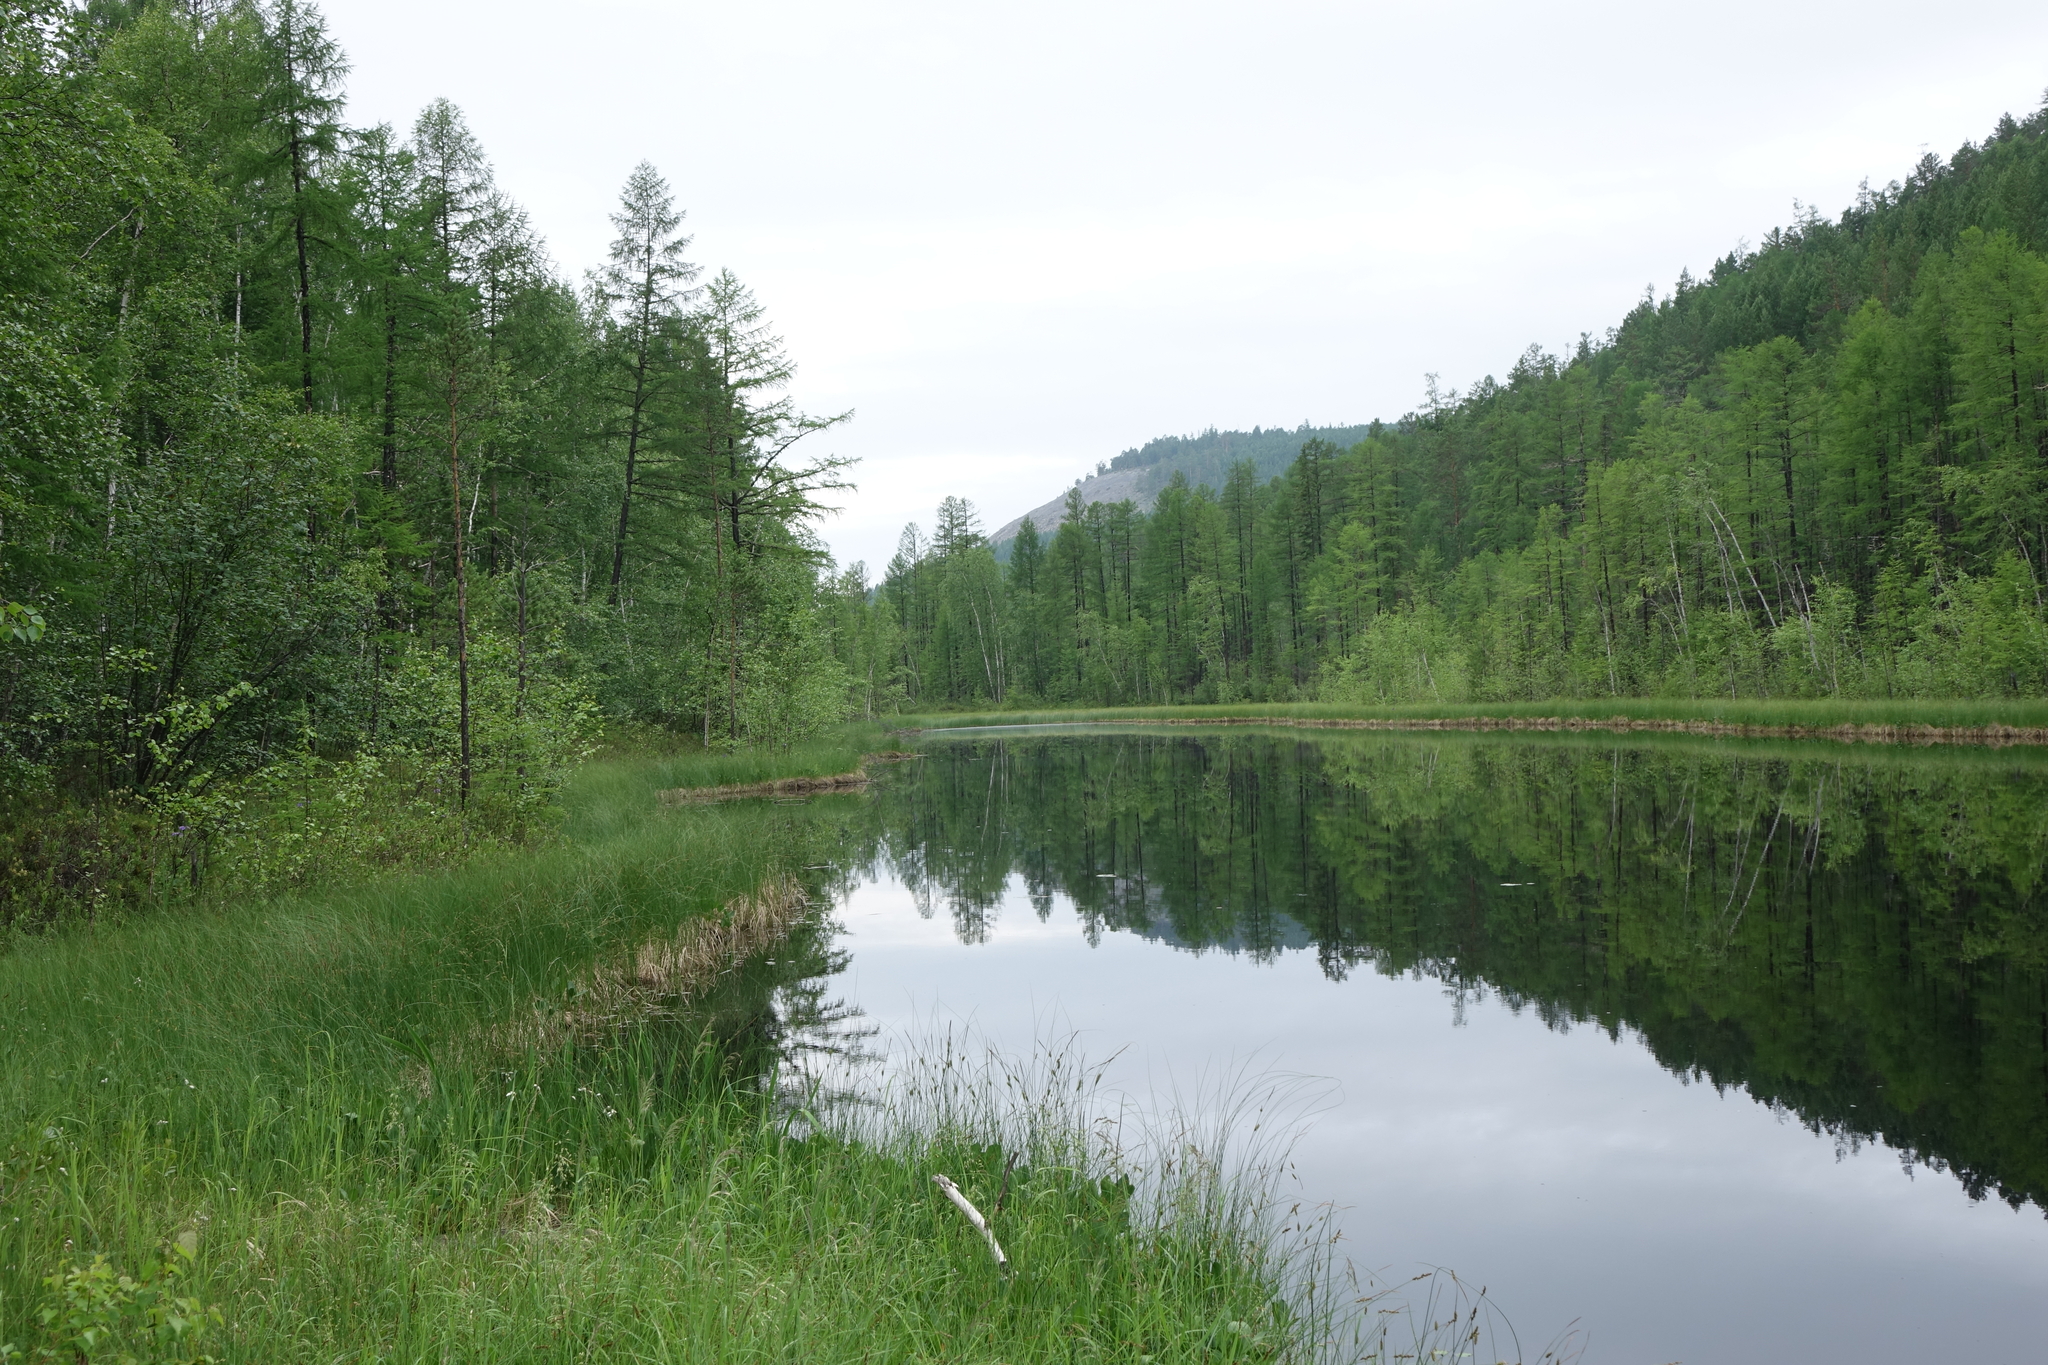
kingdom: Plantae
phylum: Tracheophyta
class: Pinopsida
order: Pinales
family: Pinaceae
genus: Larix
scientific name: Larix gmelinii
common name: Dahurian larch
